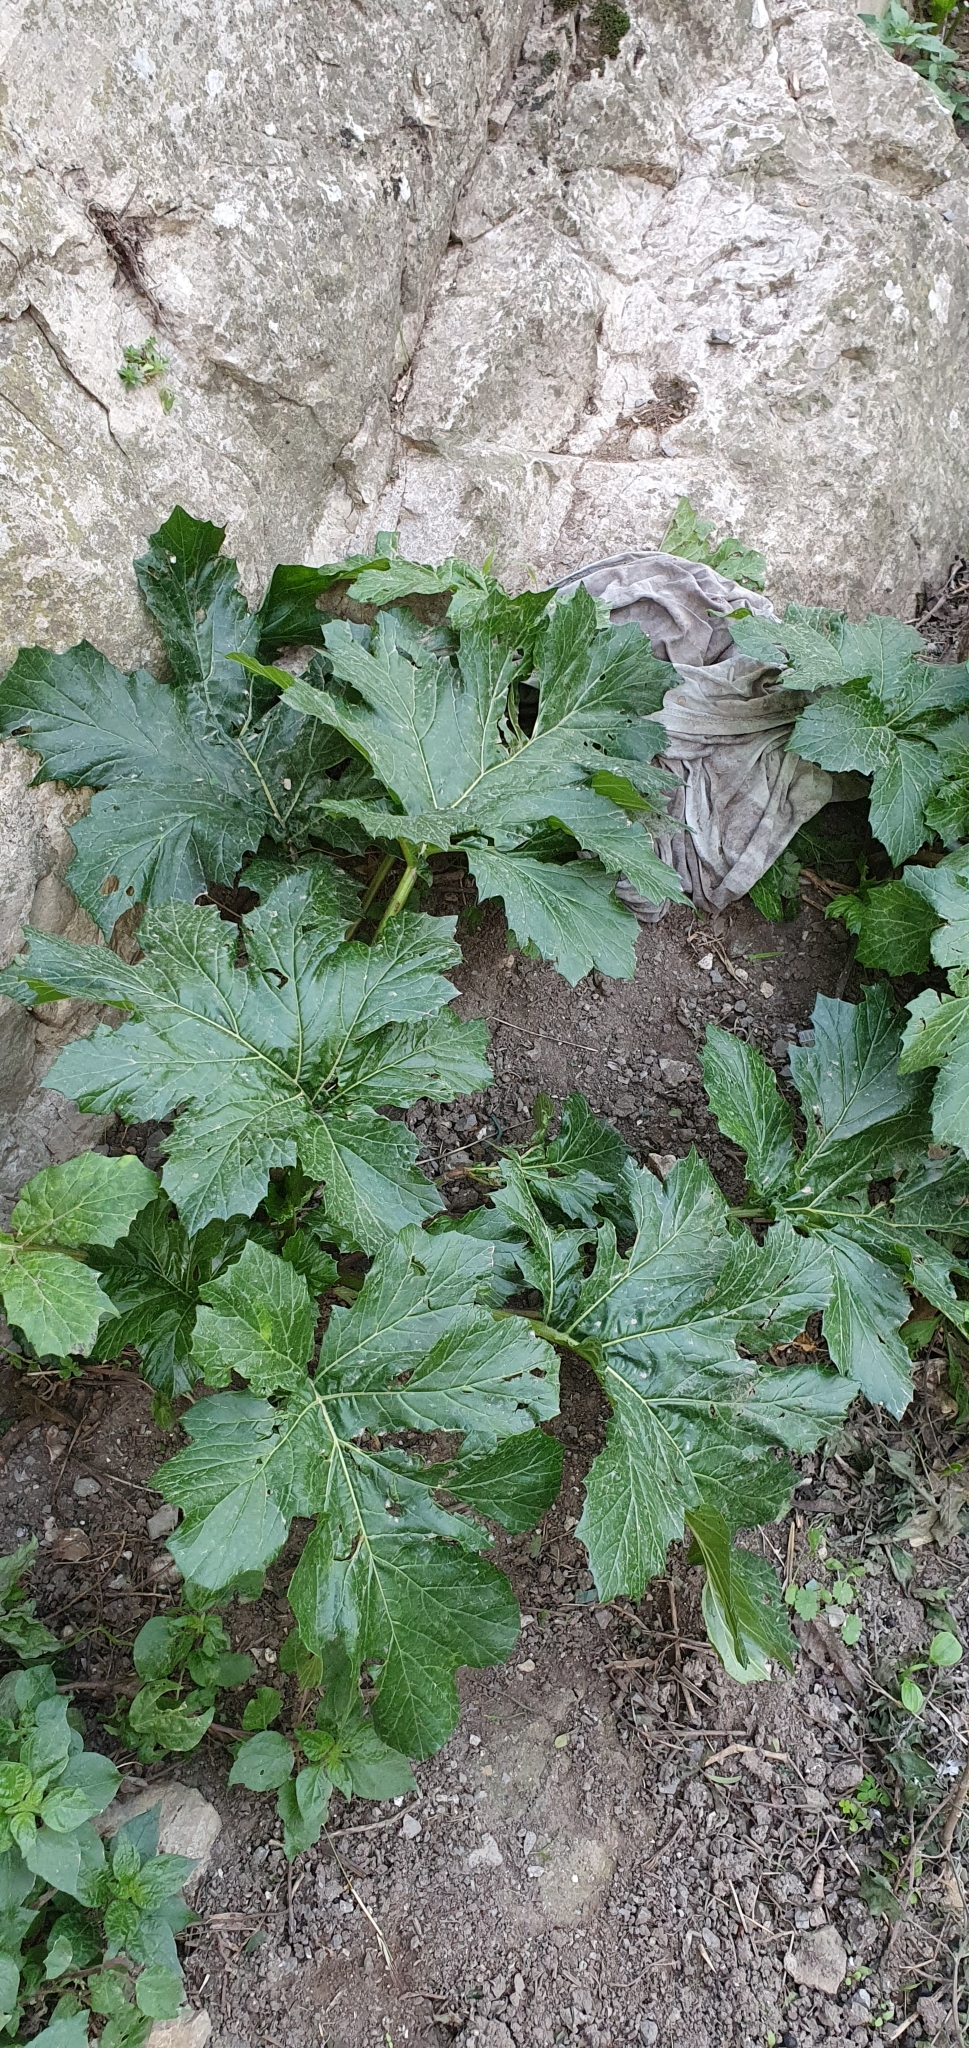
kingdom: Plantae
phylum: Tracheophyta
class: Magnoliopsida
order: Lamiales
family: Acanthaceae
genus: Acanthus
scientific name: Acanthus mollis
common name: Bear's-breech
